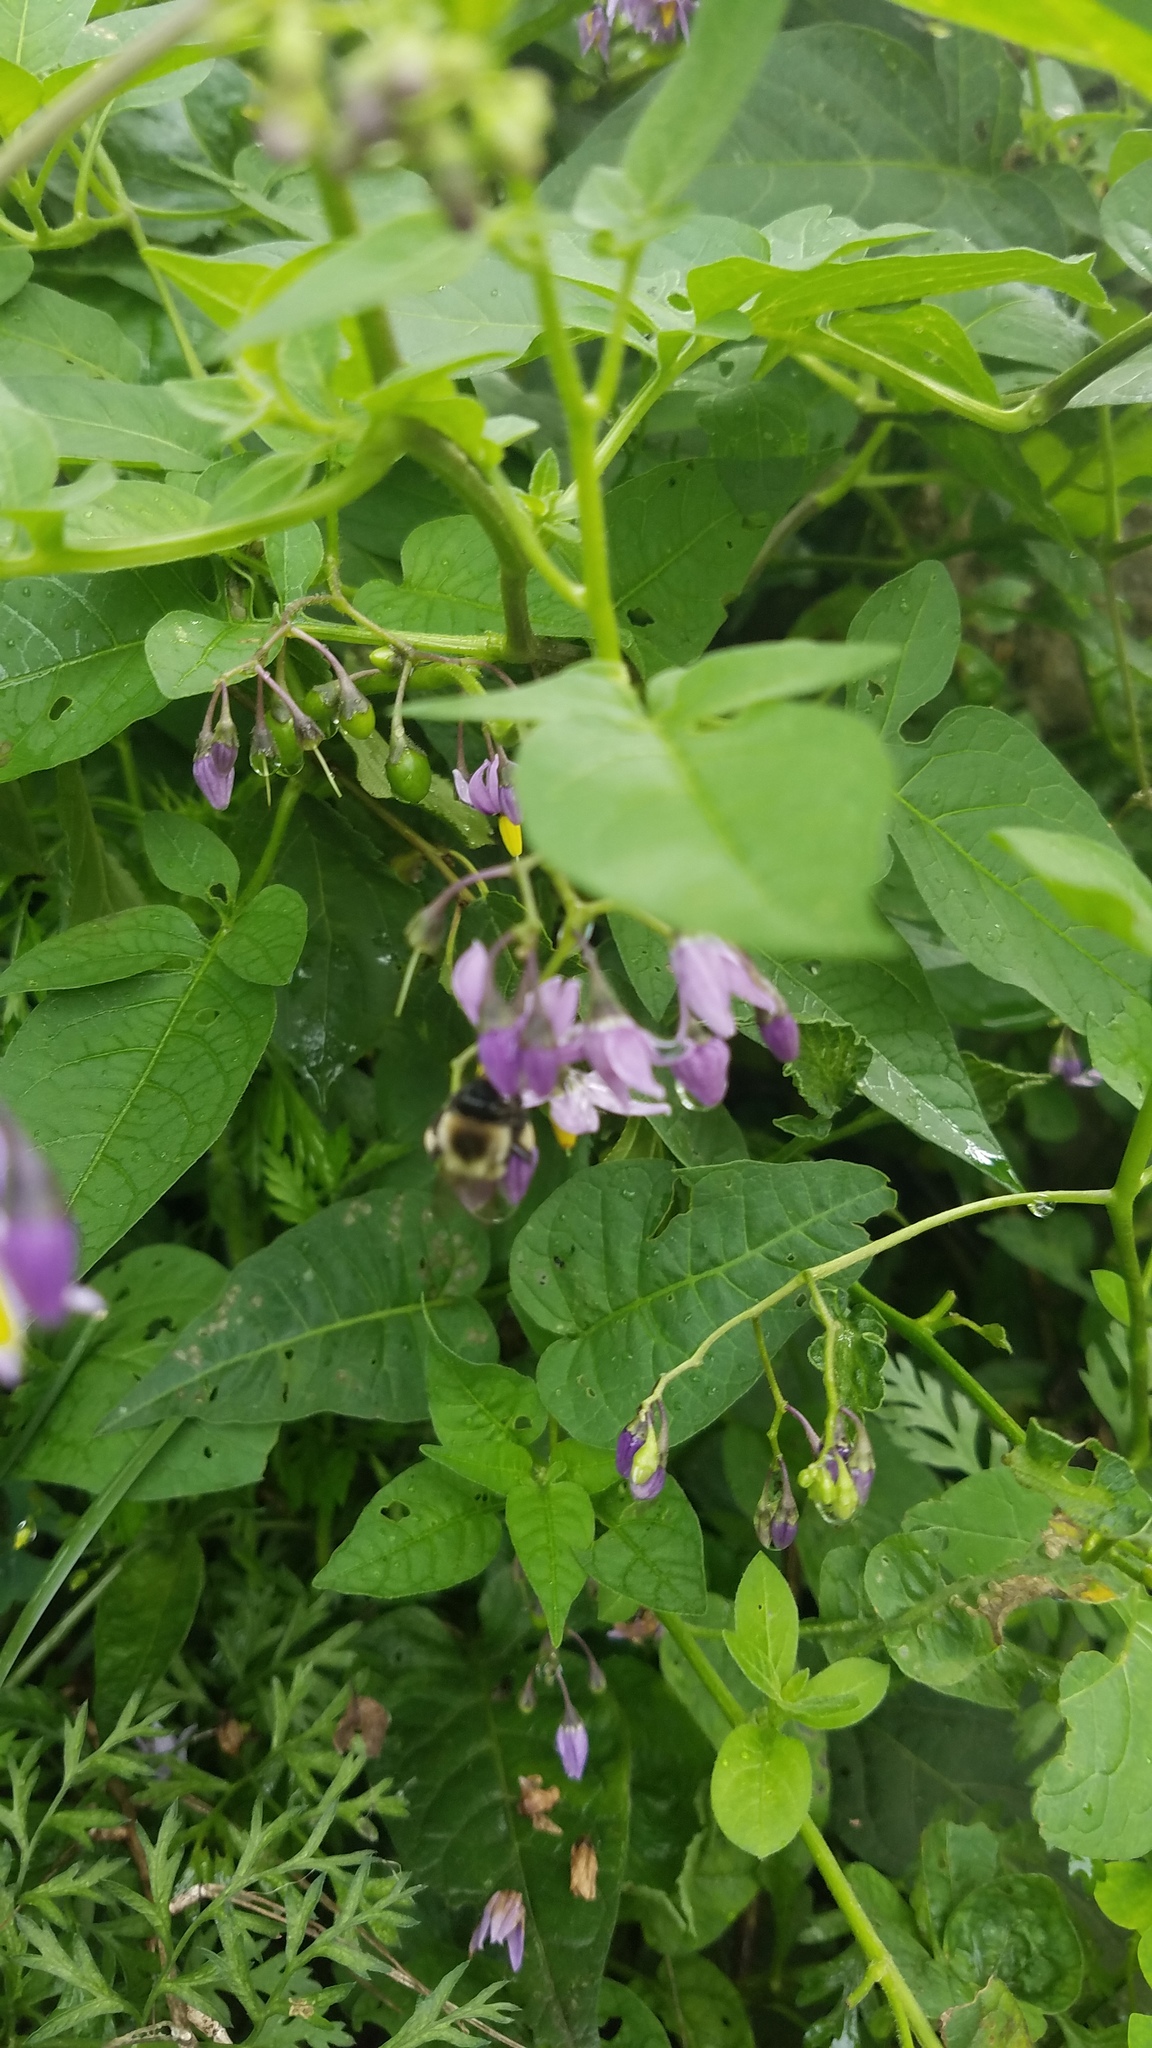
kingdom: Plantae
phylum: Tracheophyta
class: Magnoliopsida
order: Solanales
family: Solanaceae
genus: Solanum
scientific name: Solanum dulcamara
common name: Climbing nightshade
